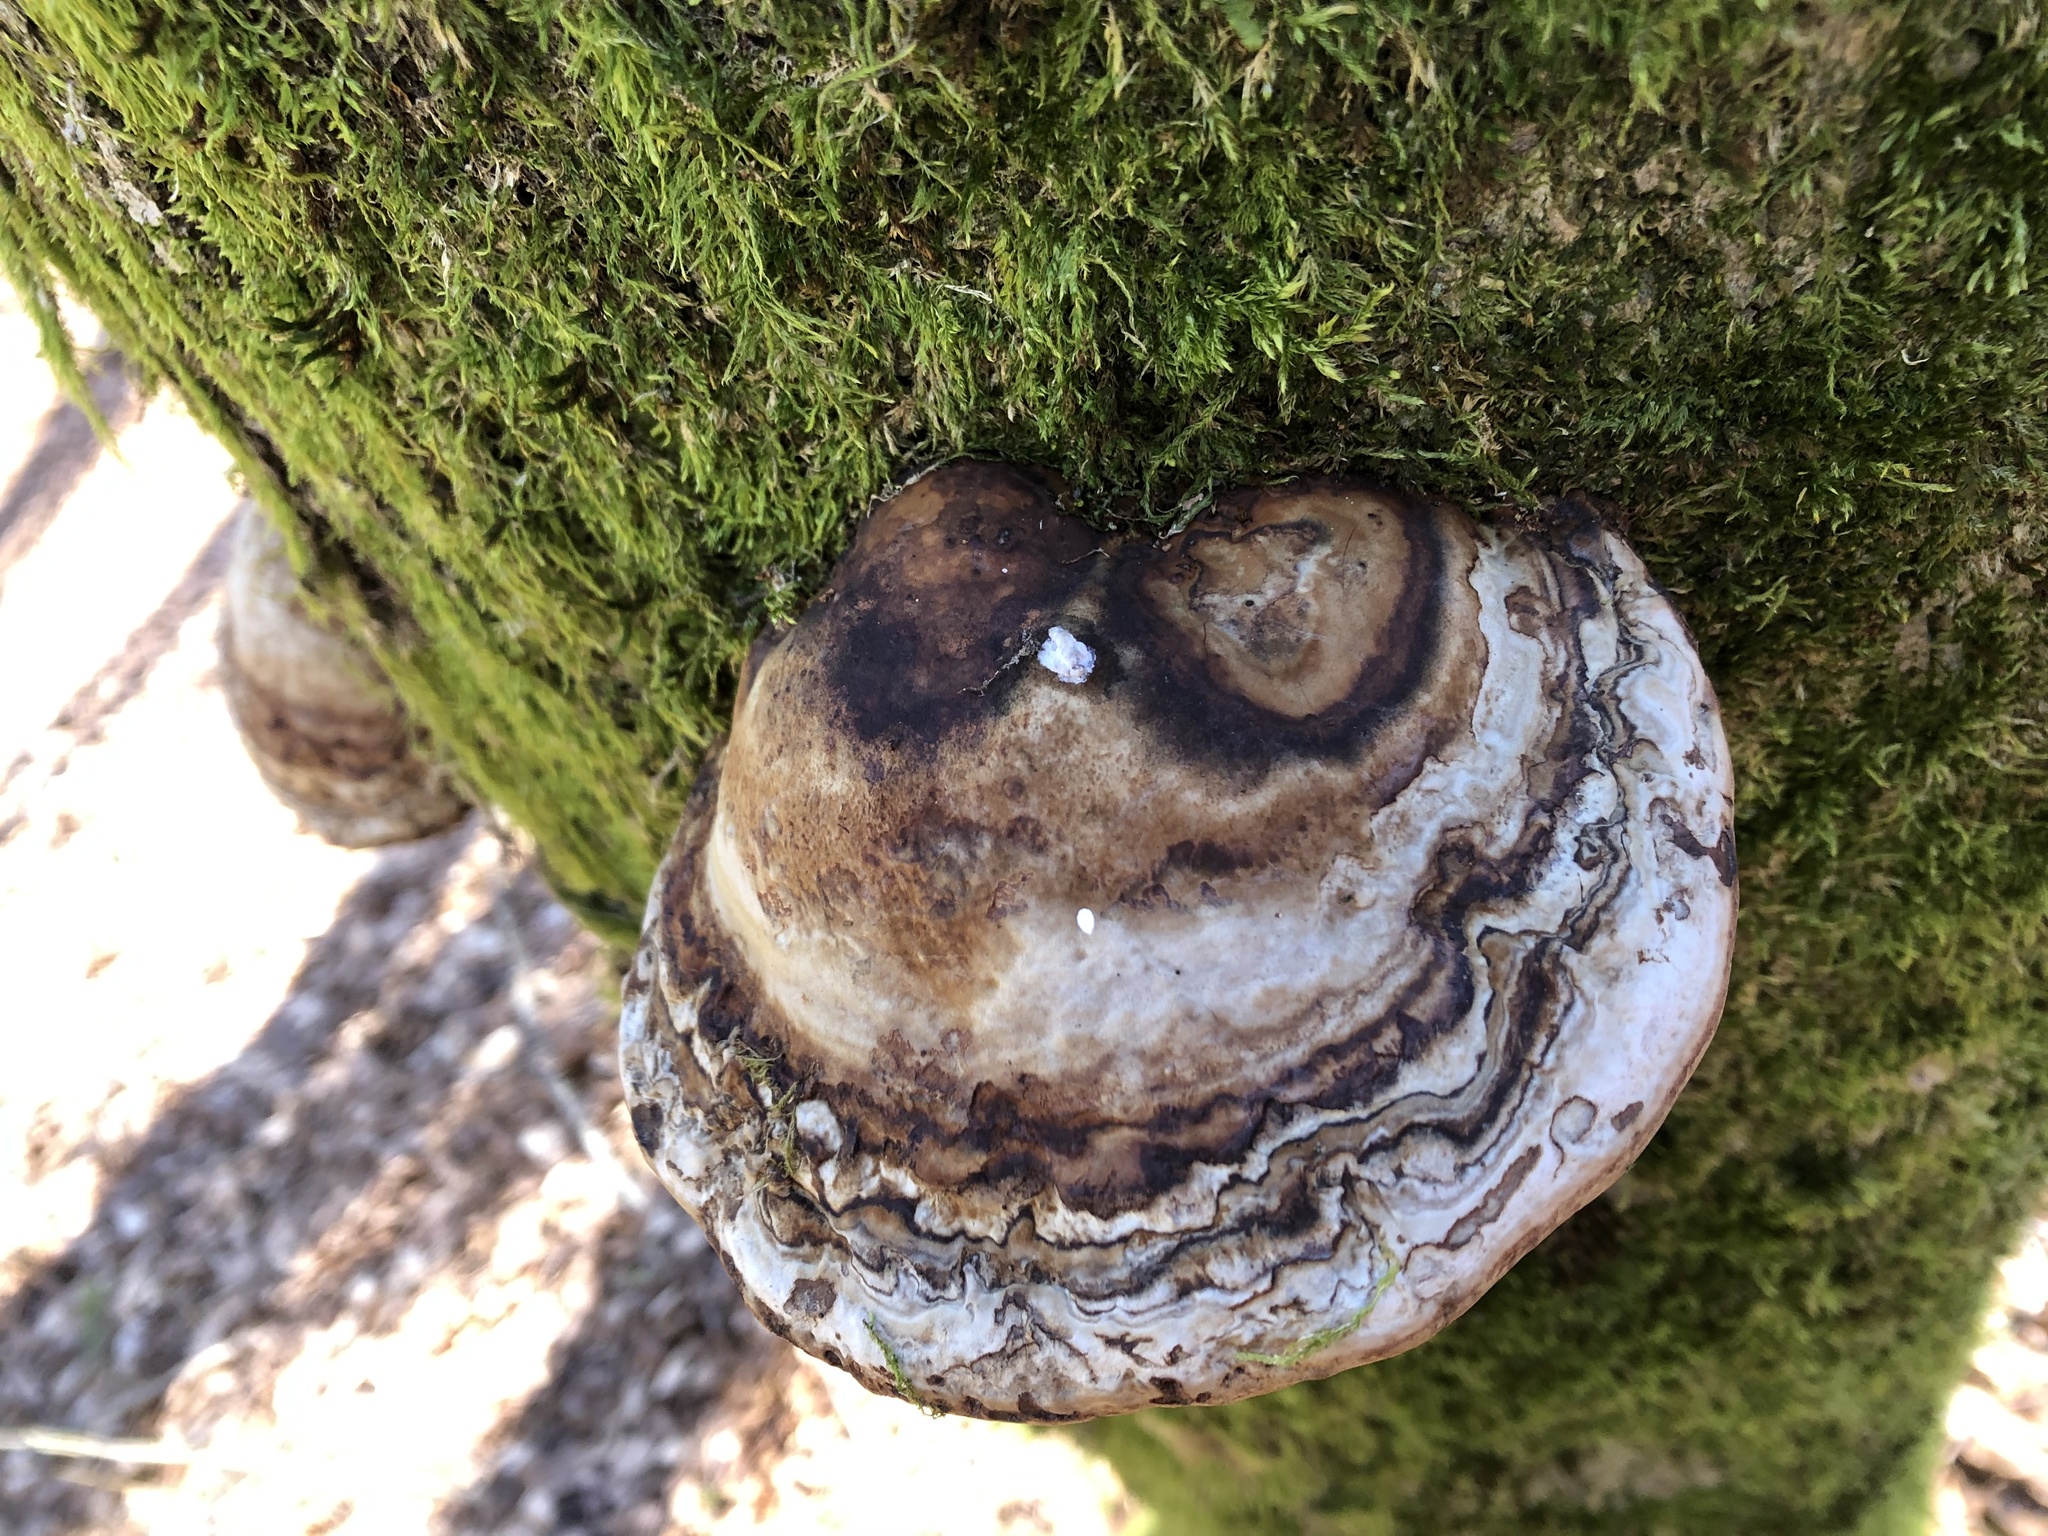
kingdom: Fungi
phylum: Basidiomycota
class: Agaricomycetes
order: Polyporales
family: Polyporaceae
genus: Fomes
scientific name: Fomes fomentarius
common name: Hoof fungus
